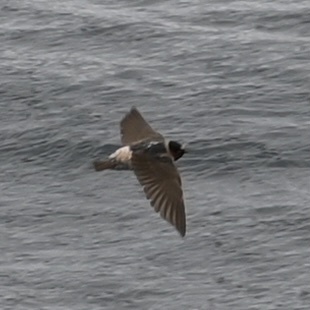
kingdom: Animalia
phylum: Chordata
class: Aves
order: Passeriformes
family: Hirundinidae
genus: Petrochelidon
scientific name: Petrochelidon pyrrhonota
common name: American cliff swallow
